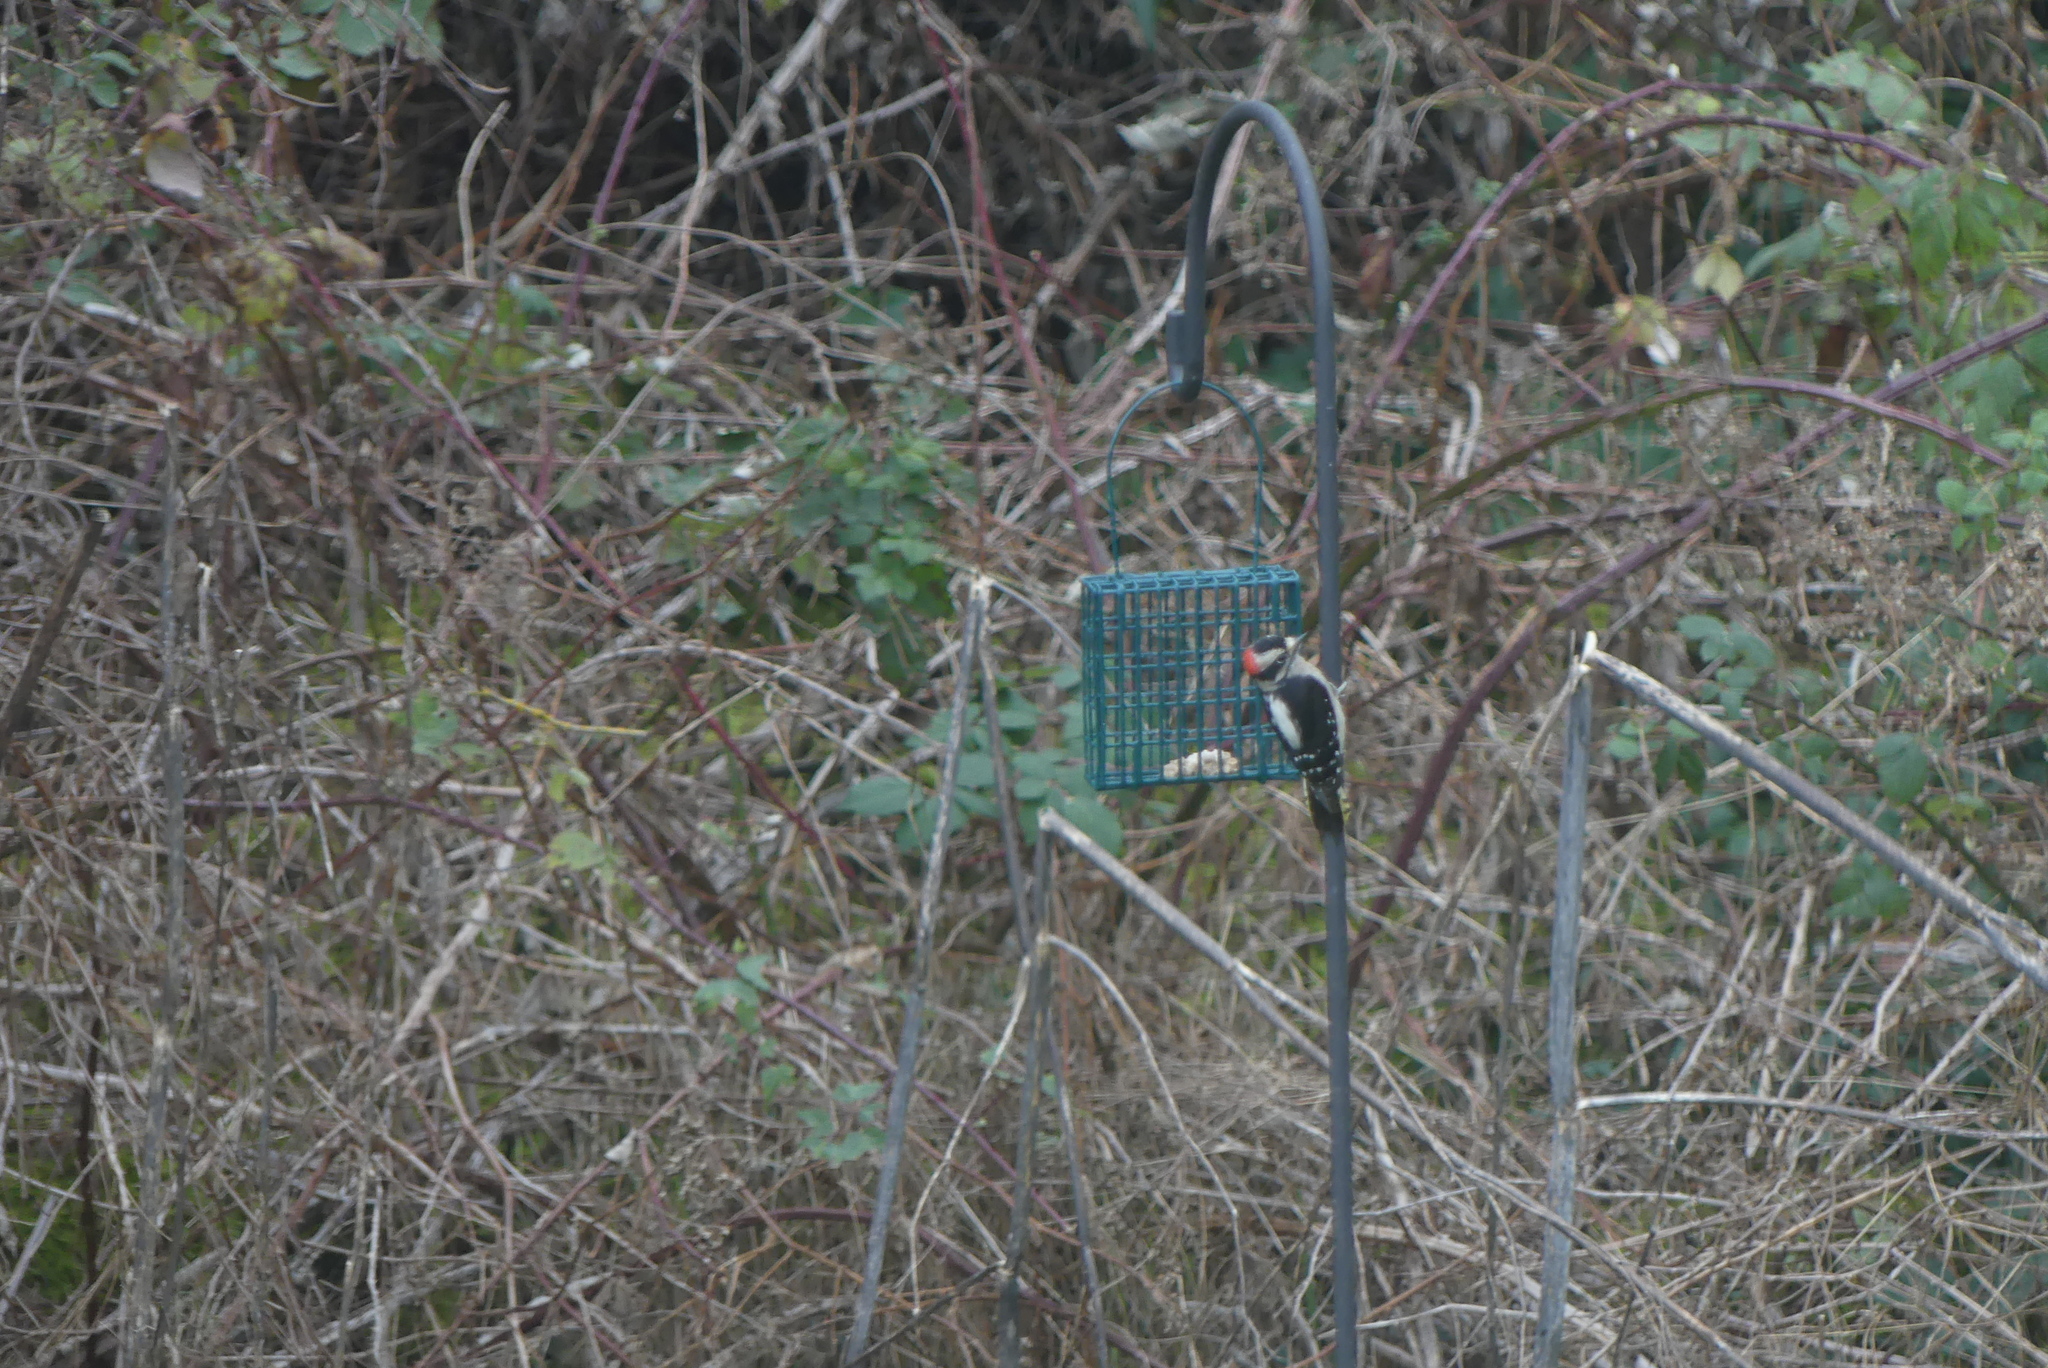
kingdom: Animalia
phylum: Chordata
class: Aves
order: Piciformes
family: Picidae
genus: Dryobates
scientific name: Dryobates pubescens
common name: Downy woodpecker
